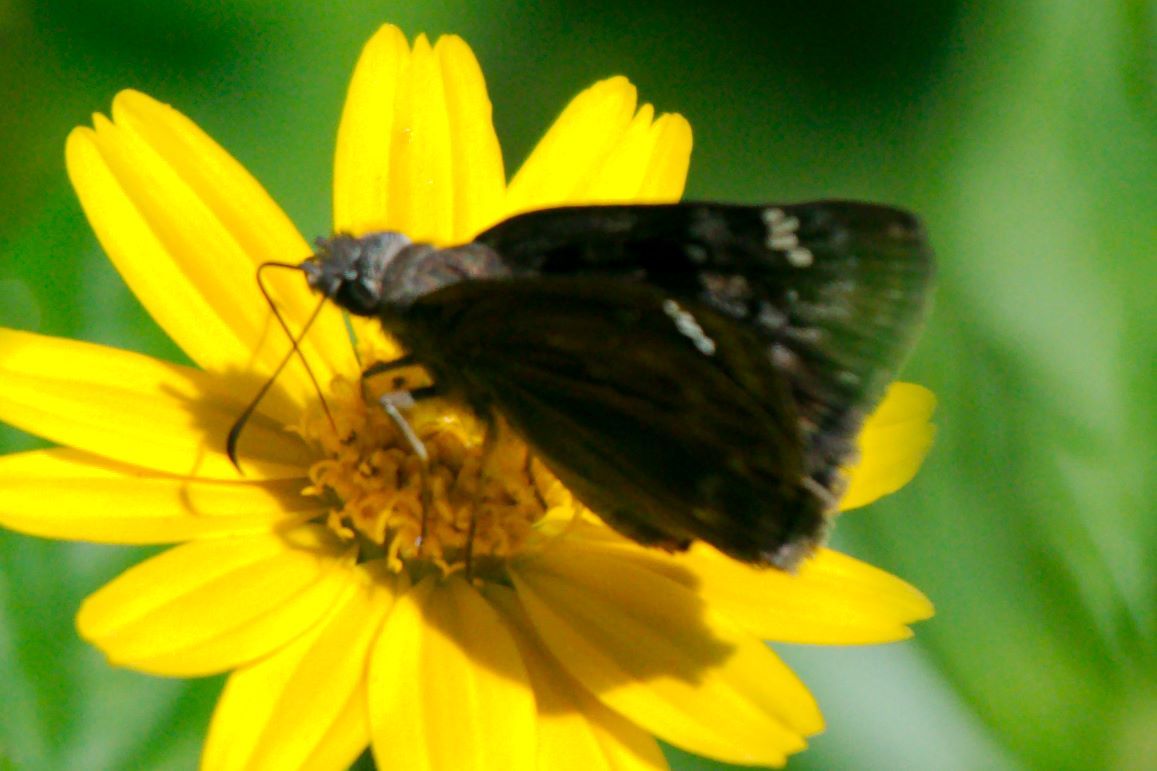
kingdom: Animalia
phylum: Arthropoda
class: Insecta
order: Lepidoptera
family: Hesperiidae
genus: Erynnis
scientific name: Erynnis horatius
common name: Horace's duskywing
